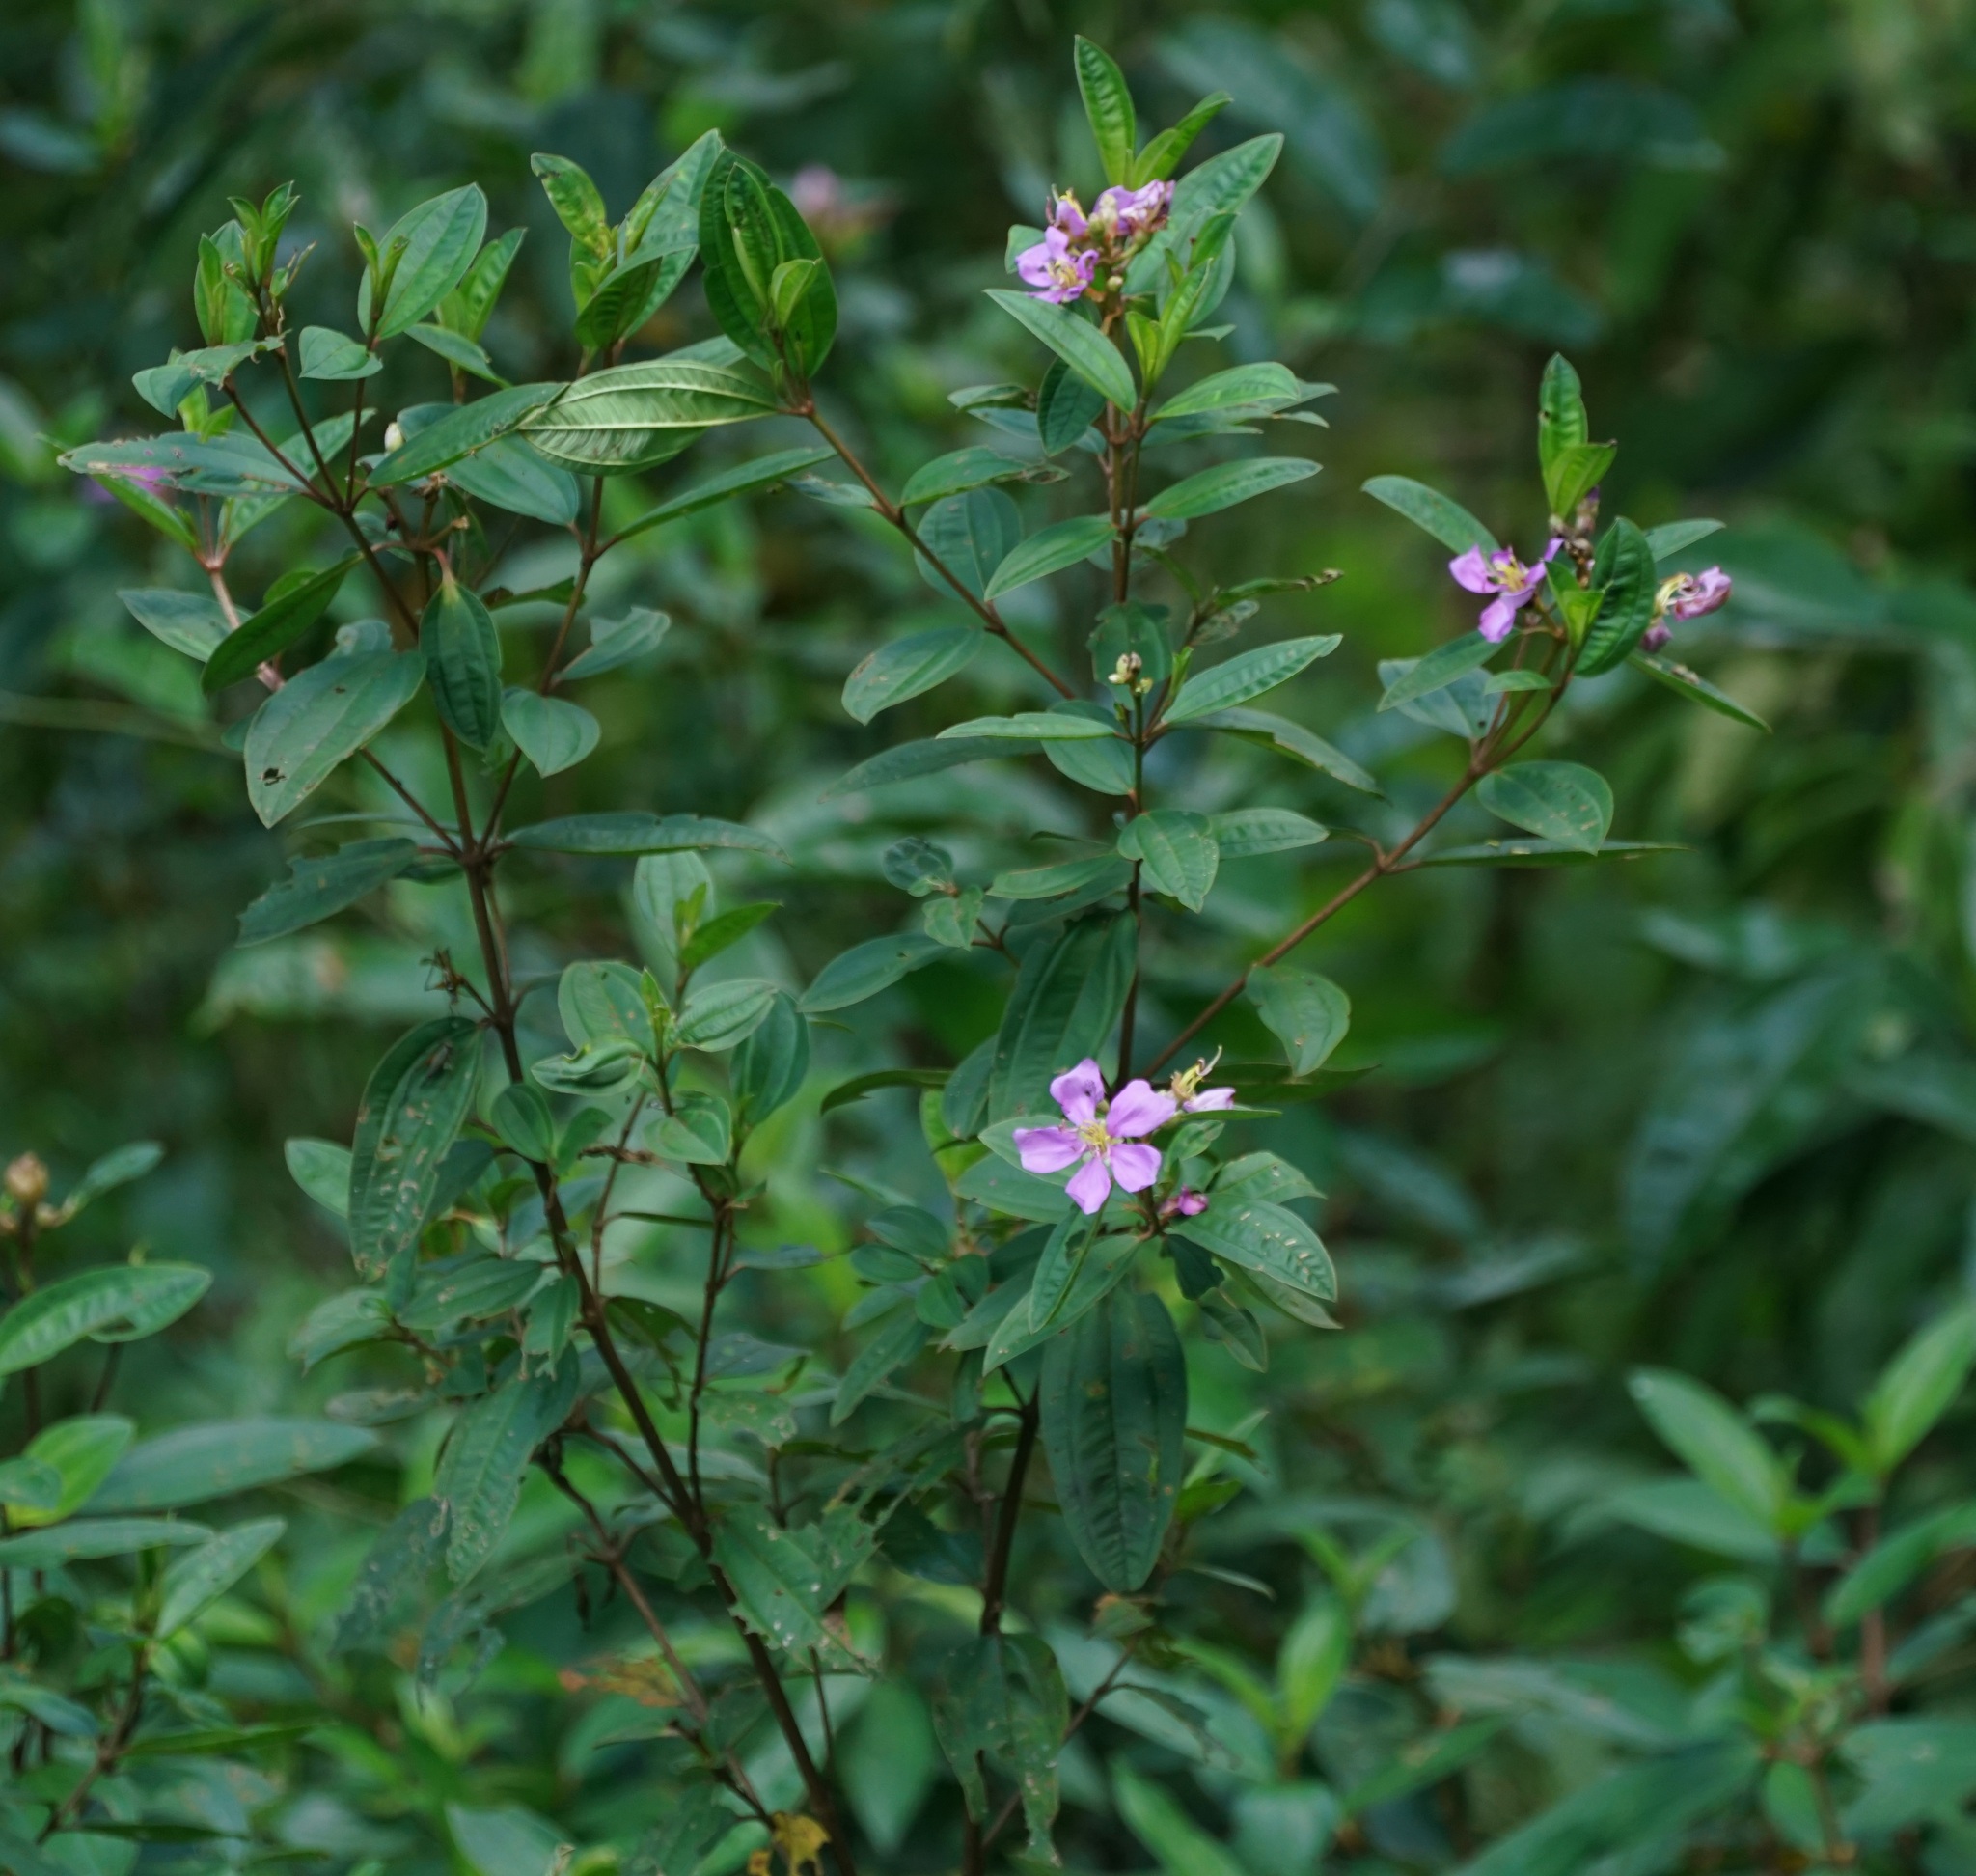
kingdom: Plantae
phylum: Tracheophyta
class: Magnoliopsida
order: Myrtales
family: Melastomataceae
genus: Melastoma
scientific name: Melastoma malabathricum
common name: Indian-rhododendron
